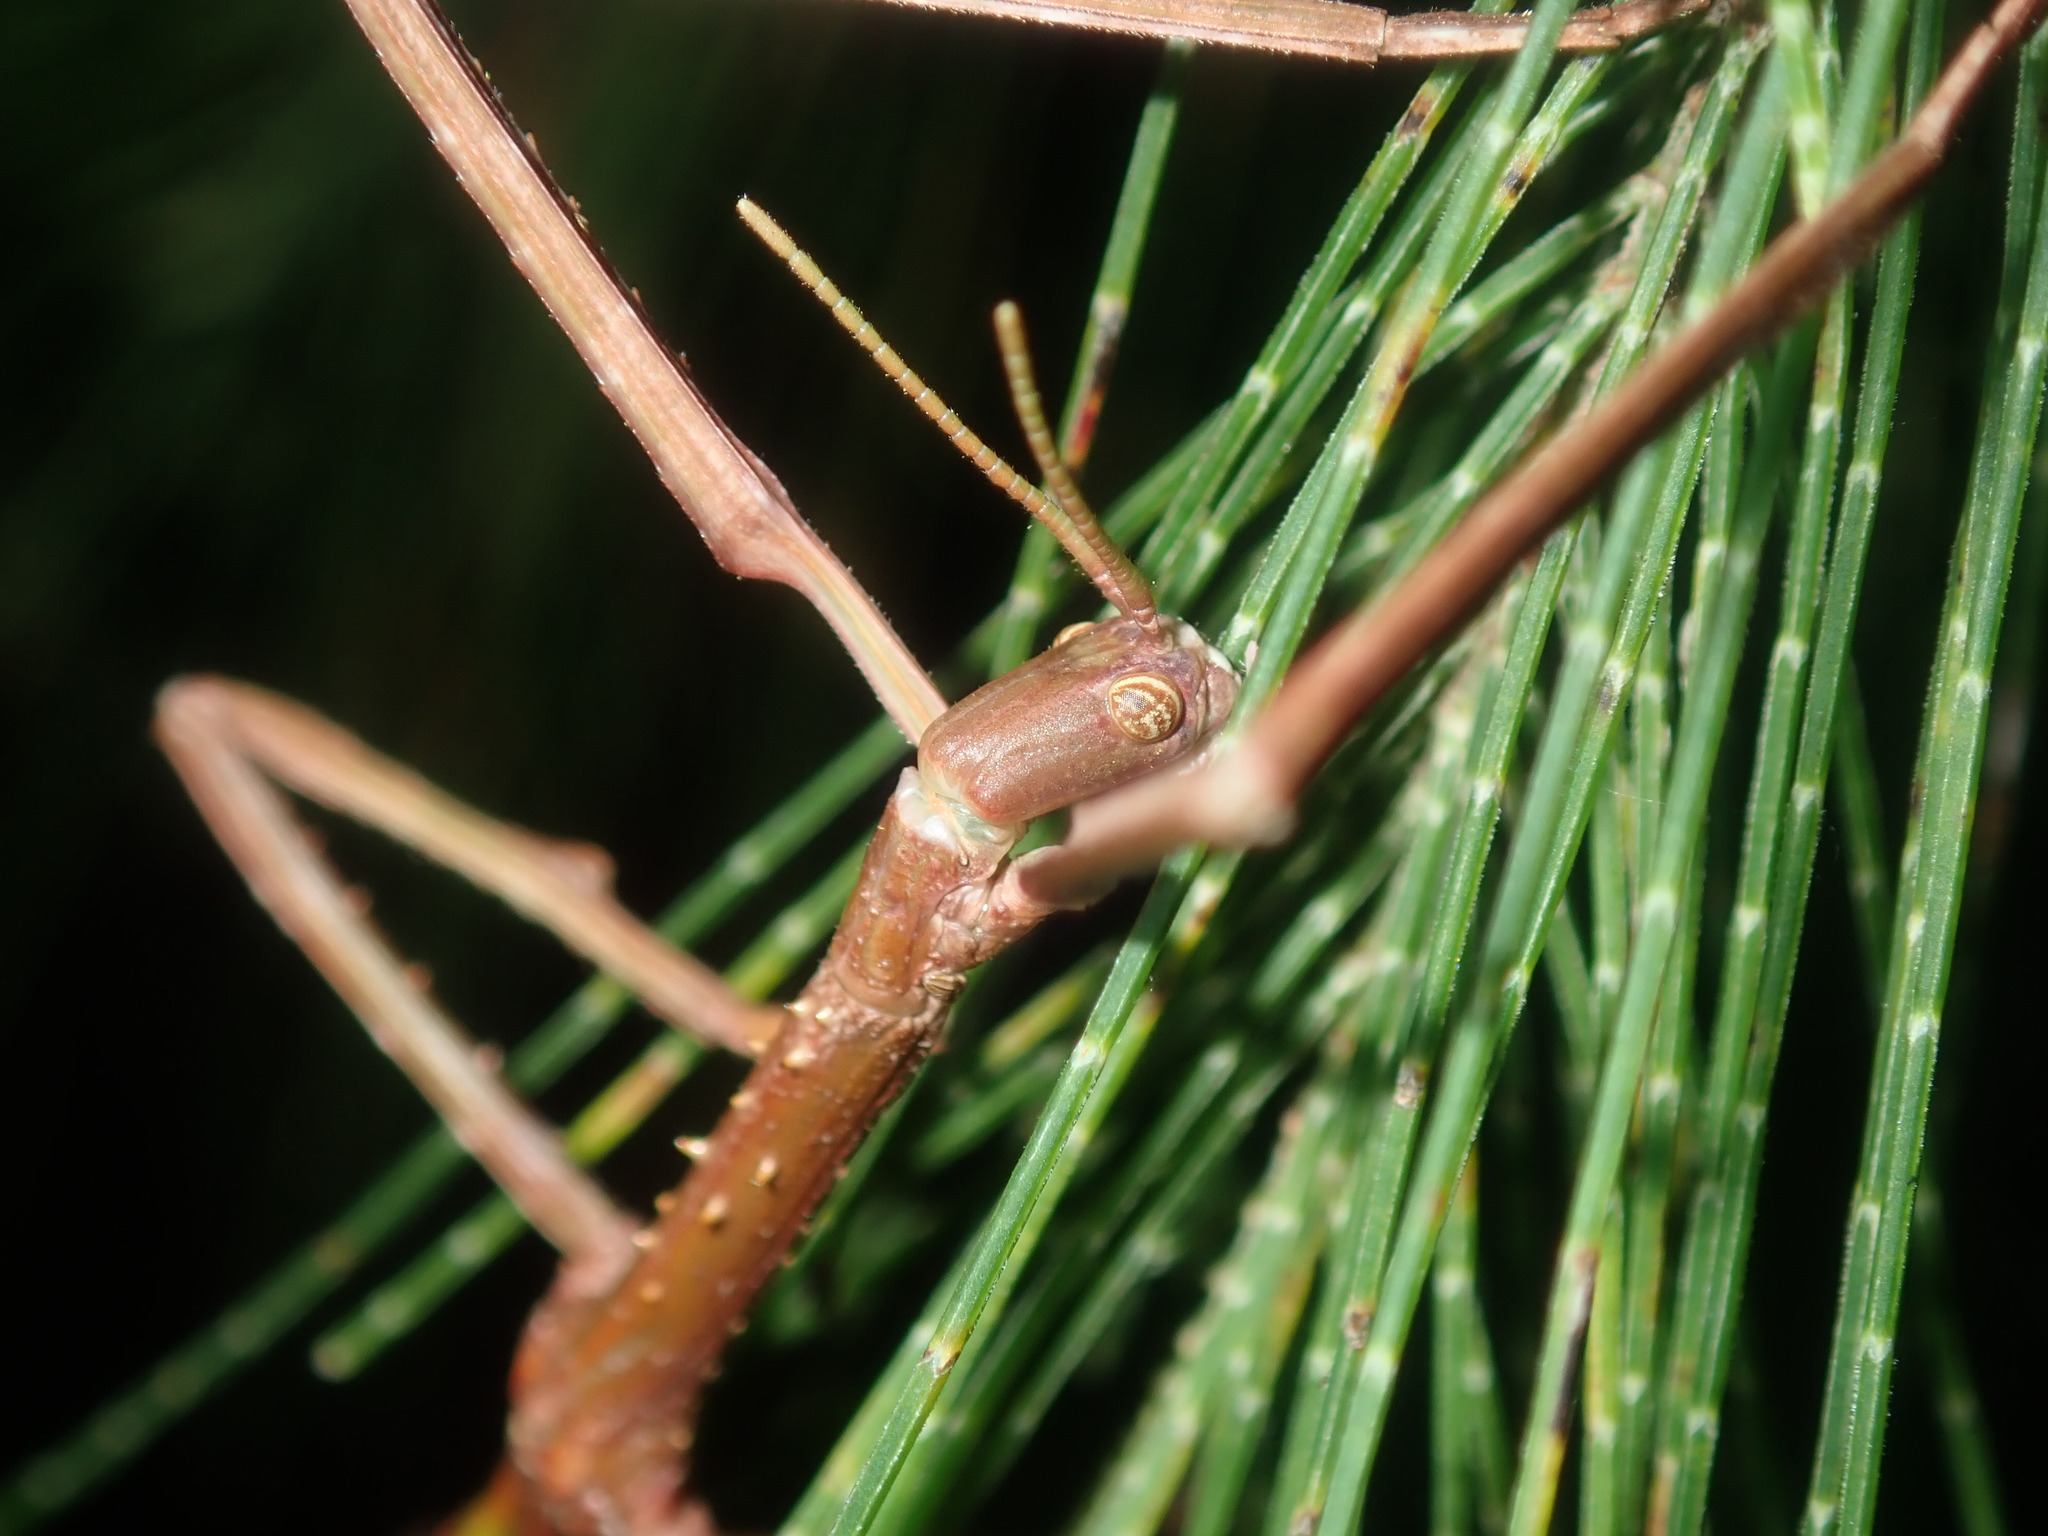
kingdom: Animalia
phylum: Arthropoda
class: Insecta
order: Phasmida
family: Phasmatidae
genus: Acrophylla
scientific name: Acrophylla titan
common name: Titan stick insect
